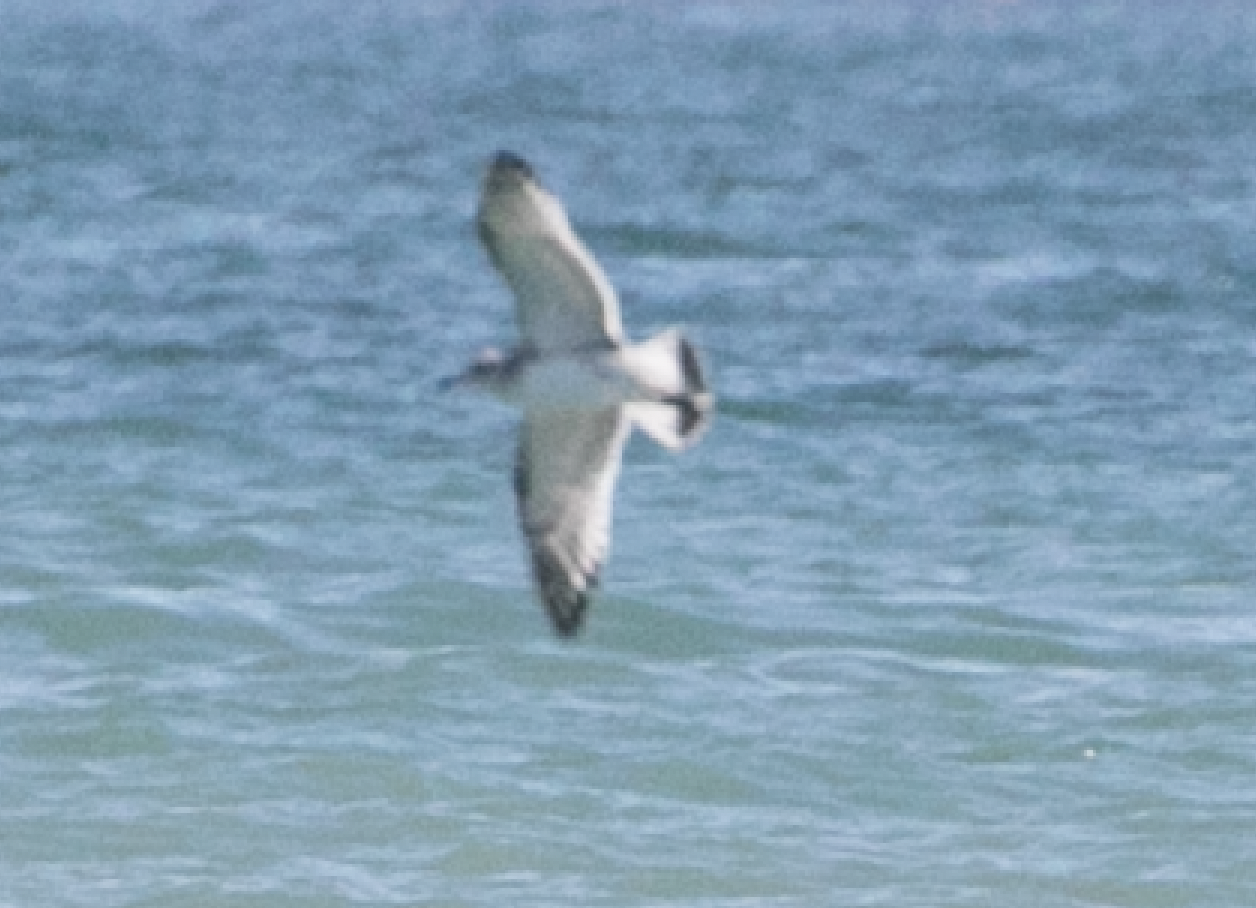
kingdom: Animalia
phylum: Chordata
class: Aves
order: Charadriiformes
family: Laridae
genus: Ichthyaetus
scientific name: Ichthyaetus melanocephalus
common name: Mediterranean gull
